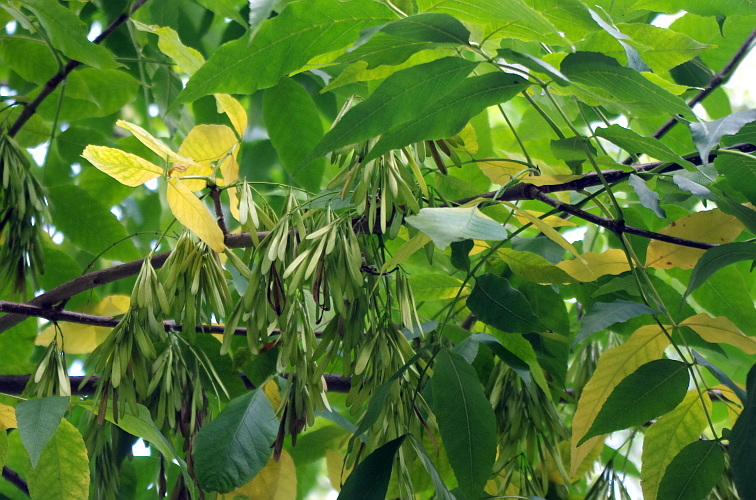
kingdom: Plantae
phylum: Tracheophyta
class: Magnoliopsida
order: Lamiales
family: Oleaceae
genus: Fraxinus
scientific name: Fraxinus pennsylvanica
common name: Green ash
